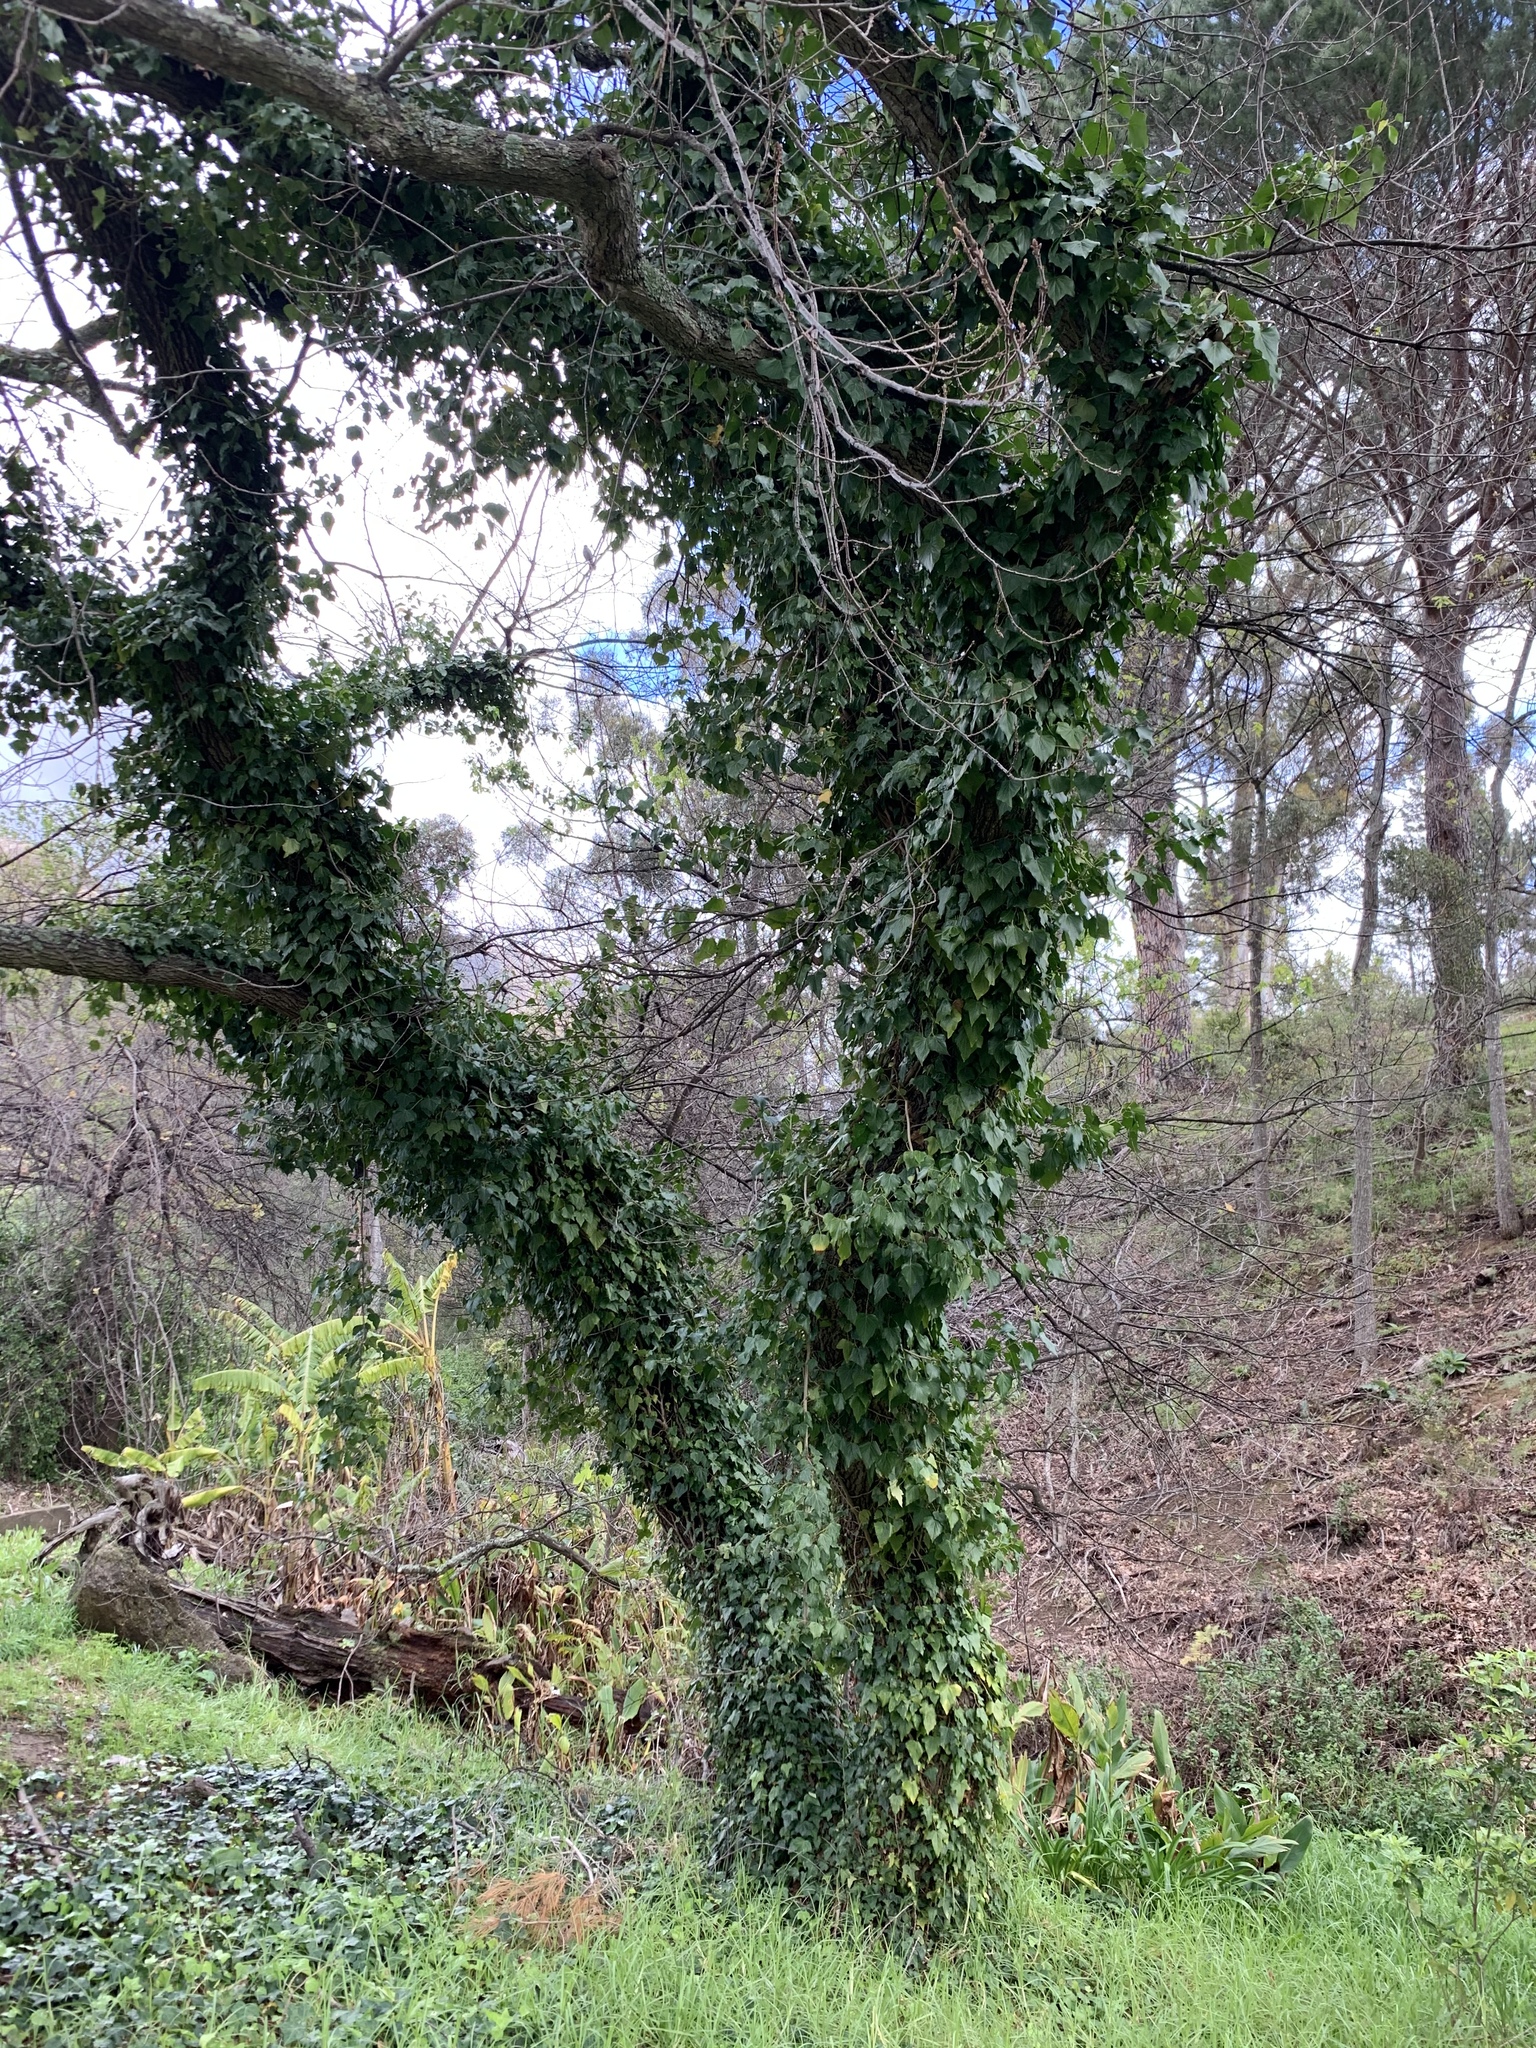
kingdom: Plantae
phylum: Tracheophyta
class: Magnoliopsida
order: Apiales
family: Araliaceae
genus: Hedera
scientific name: Hedera canariensis
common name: Madeira ivy
